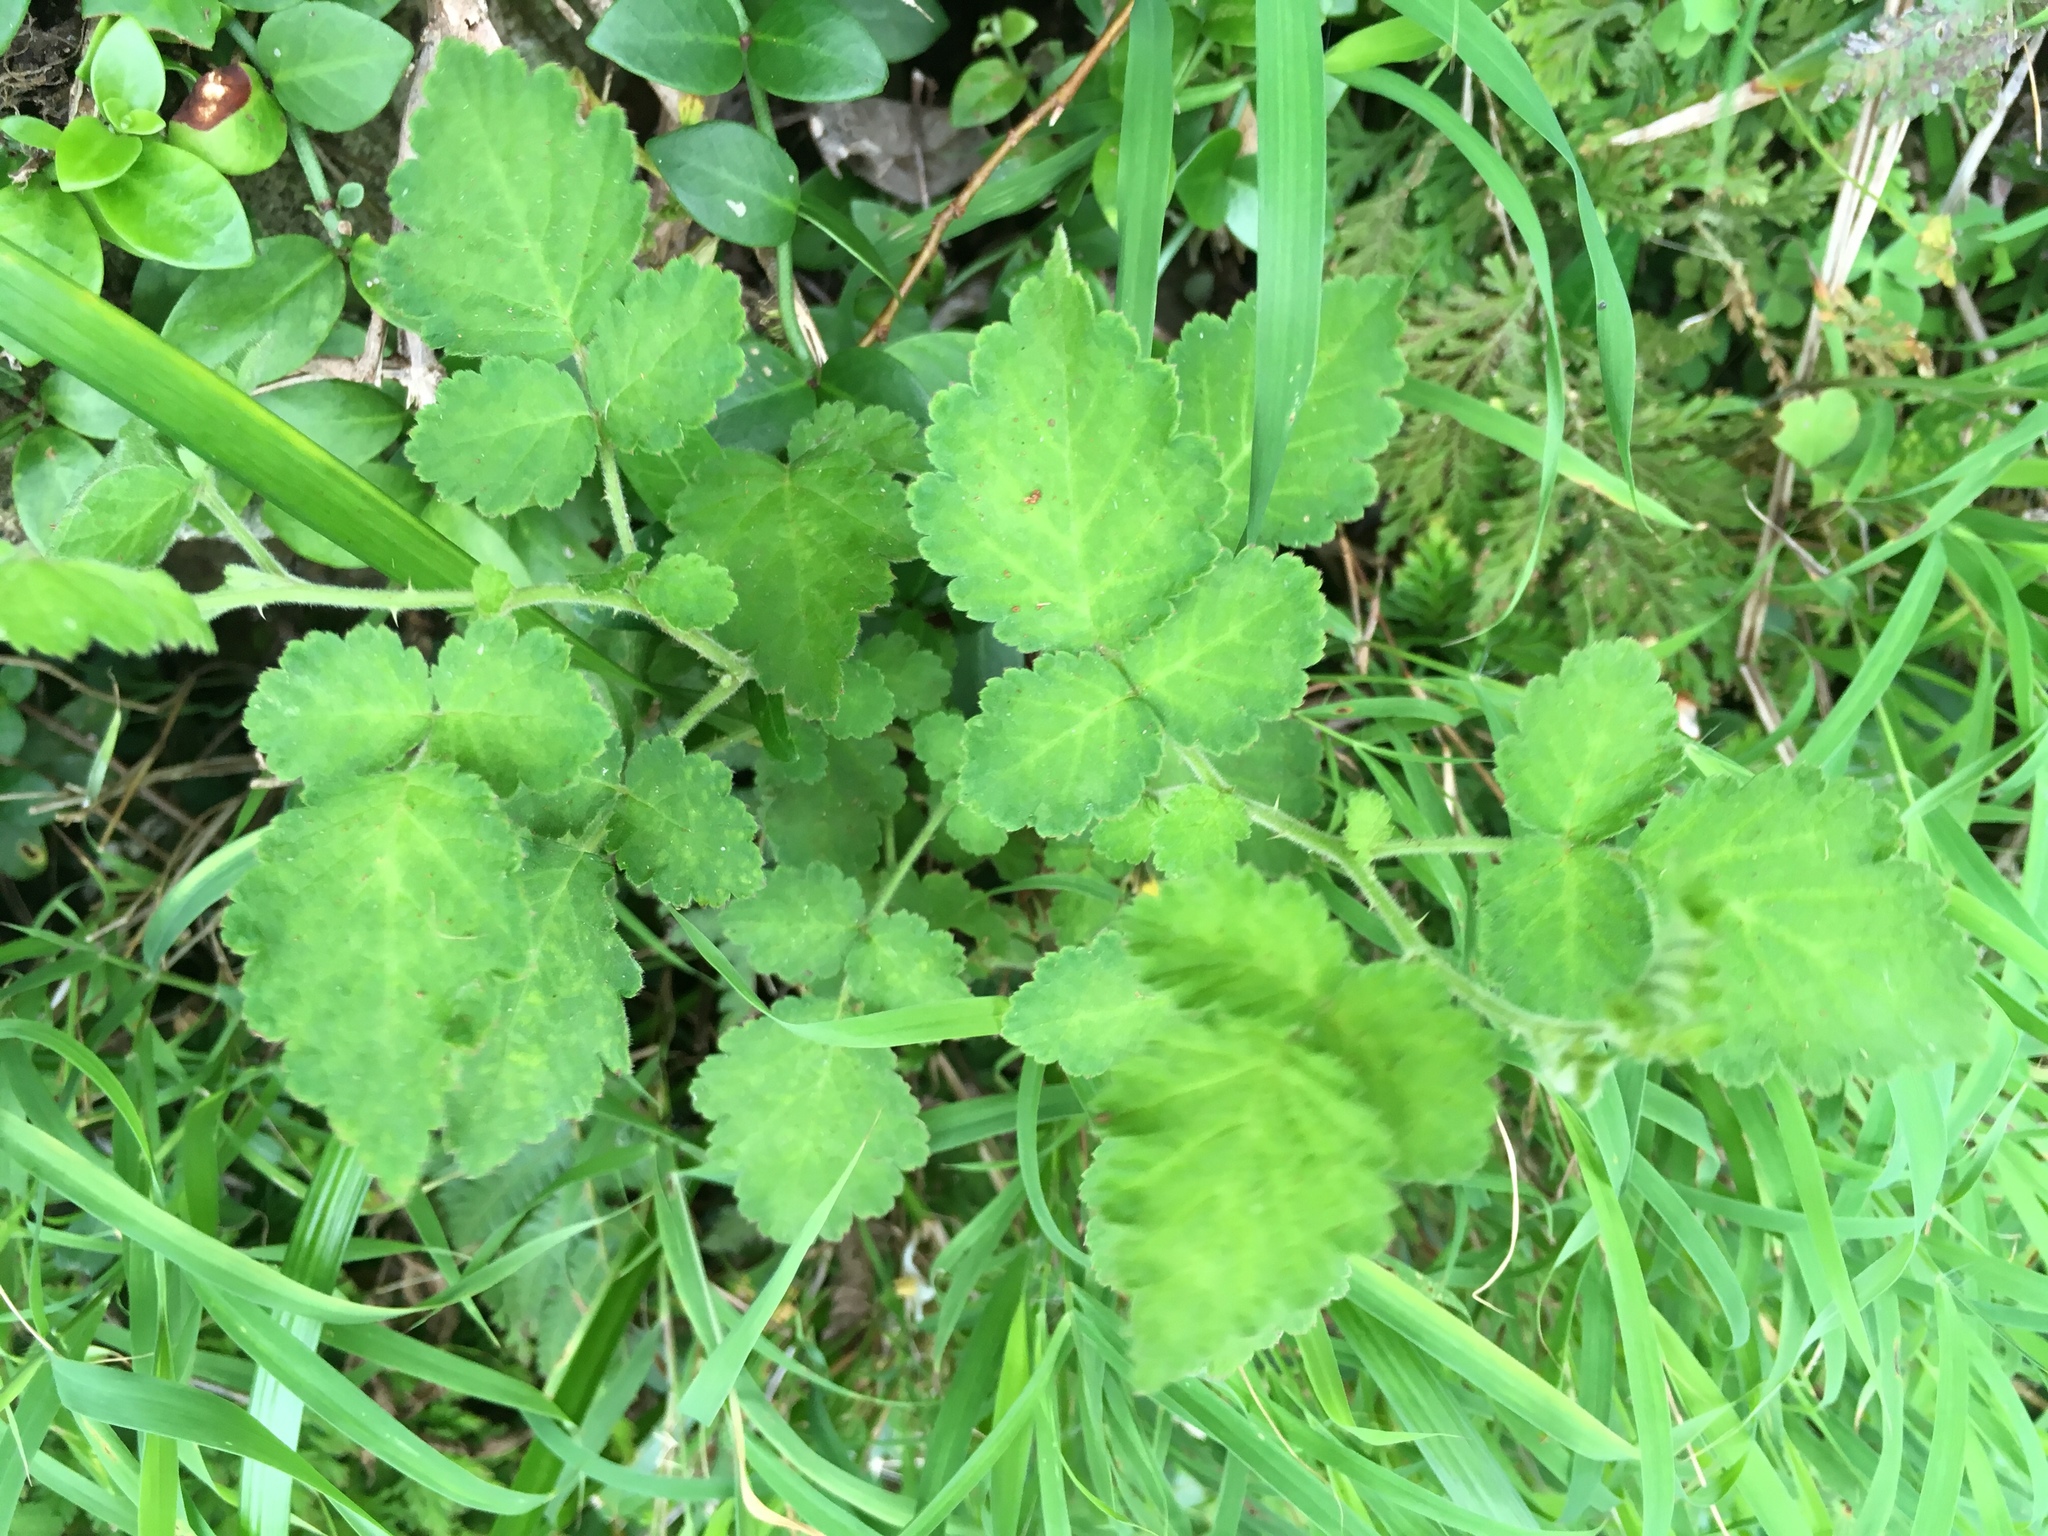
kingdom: Plantae
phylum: Tracheophyta
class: Magnoliopsida
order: Rosales
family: Rosaceae
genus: Rubus
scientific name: Rubus rosifolius
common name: Roseleaf raspberry
